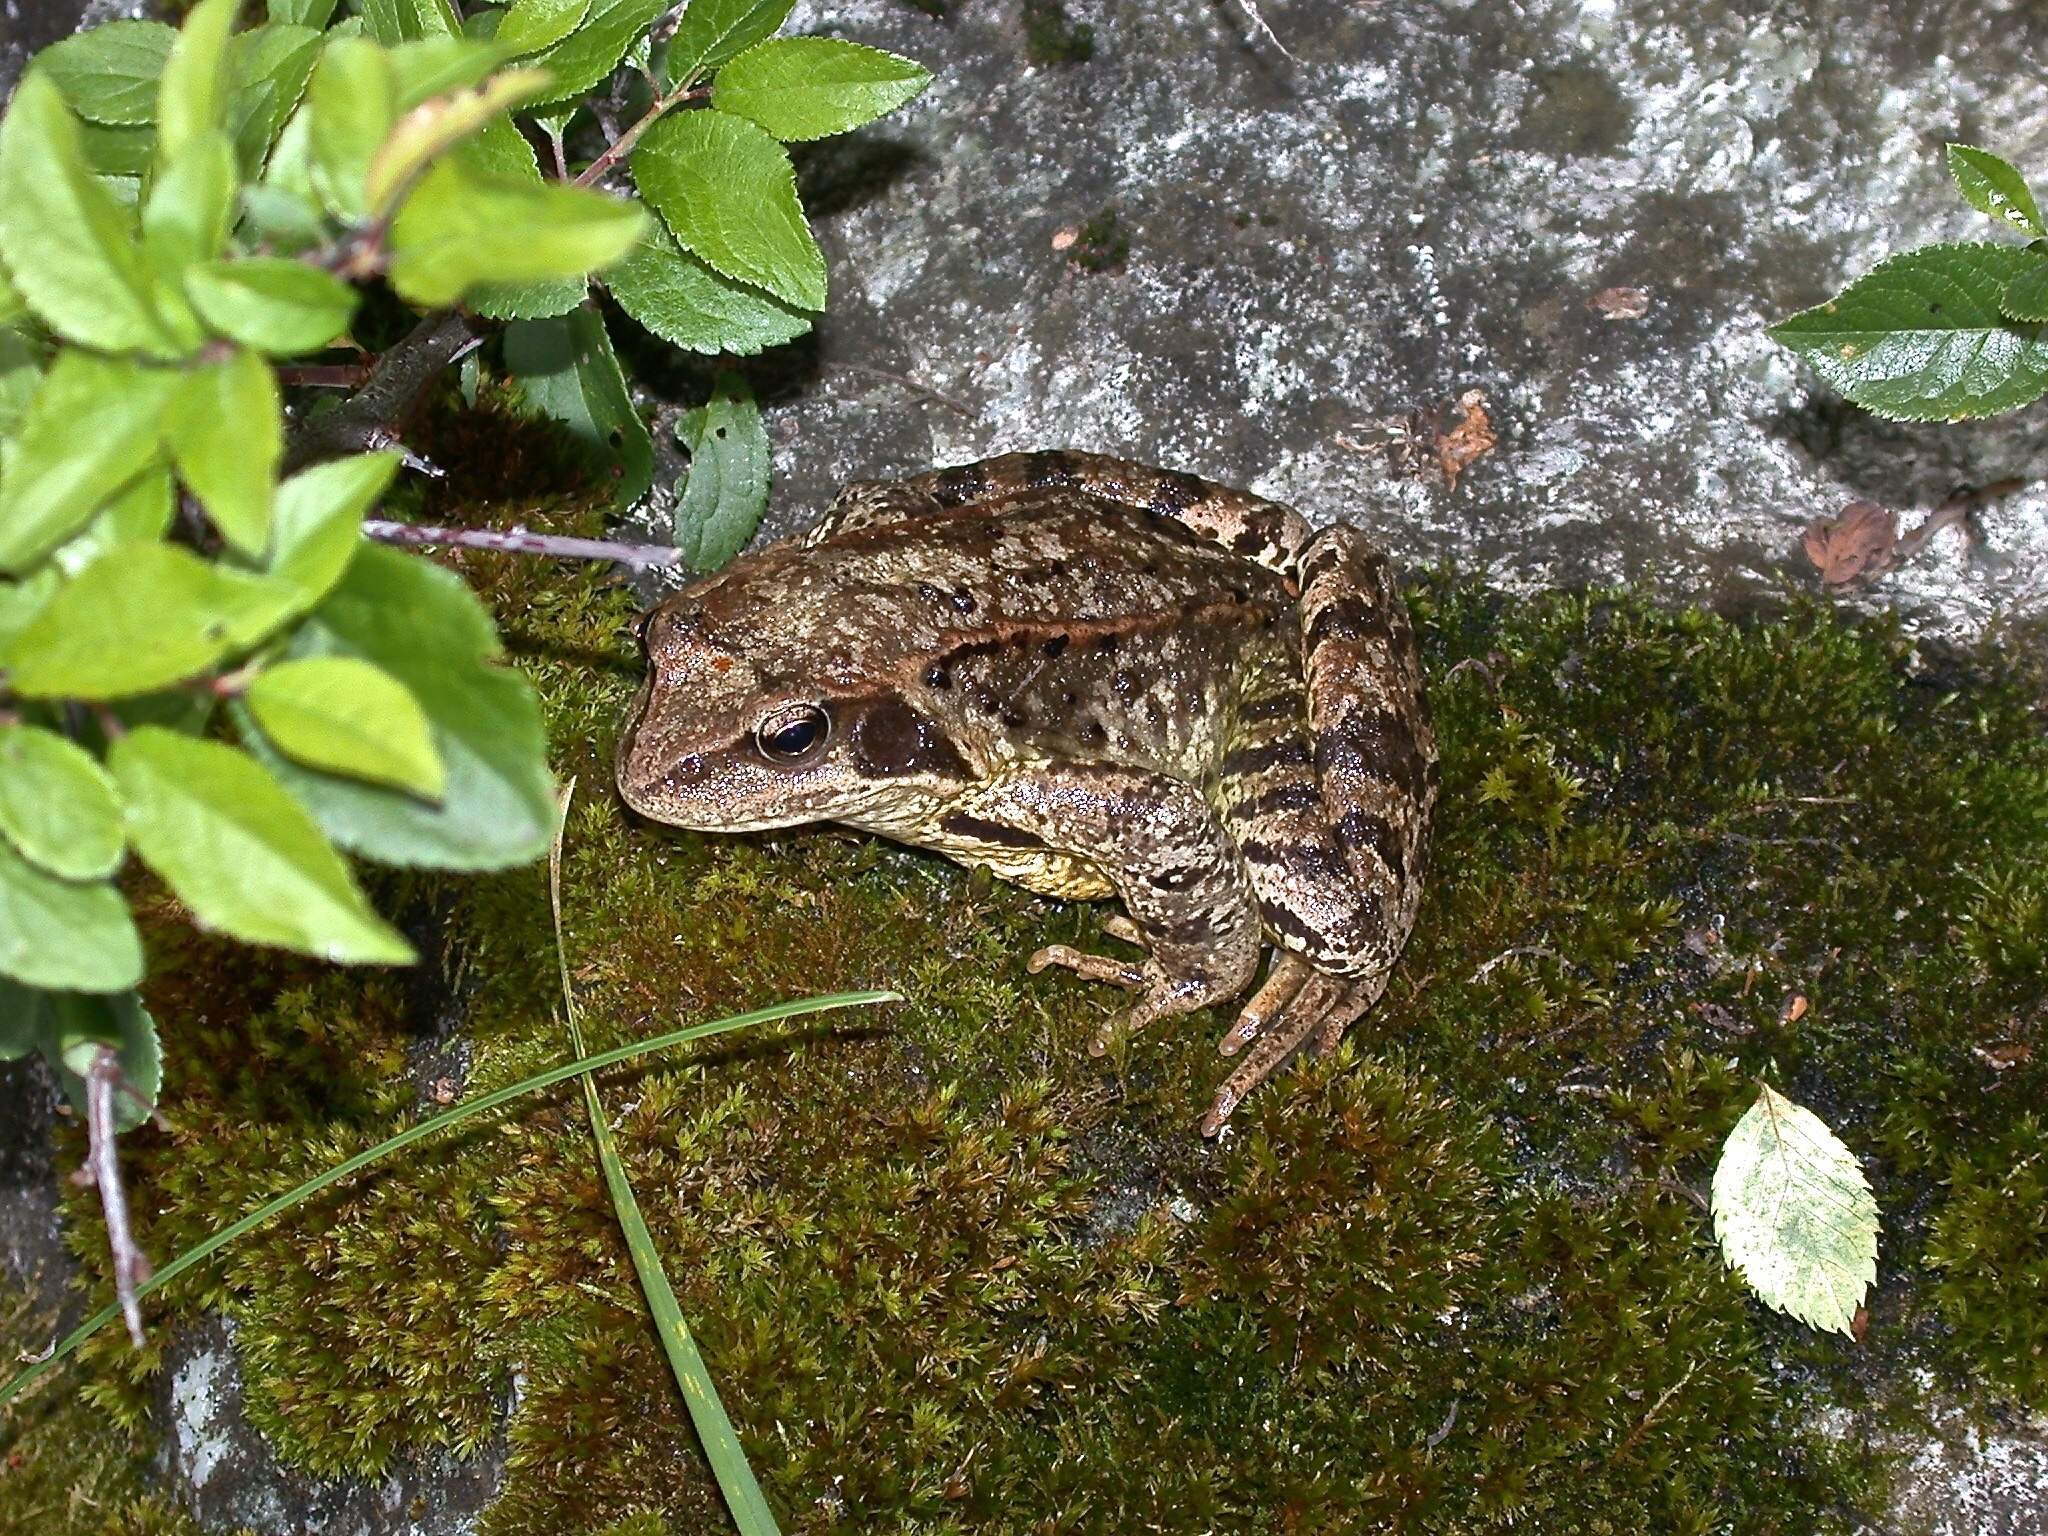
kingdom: Animalia
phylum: Chordata
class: Amphibia
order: Anura
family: Ranidae
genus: Rana
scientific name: Rana temporaria
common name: Common frog
